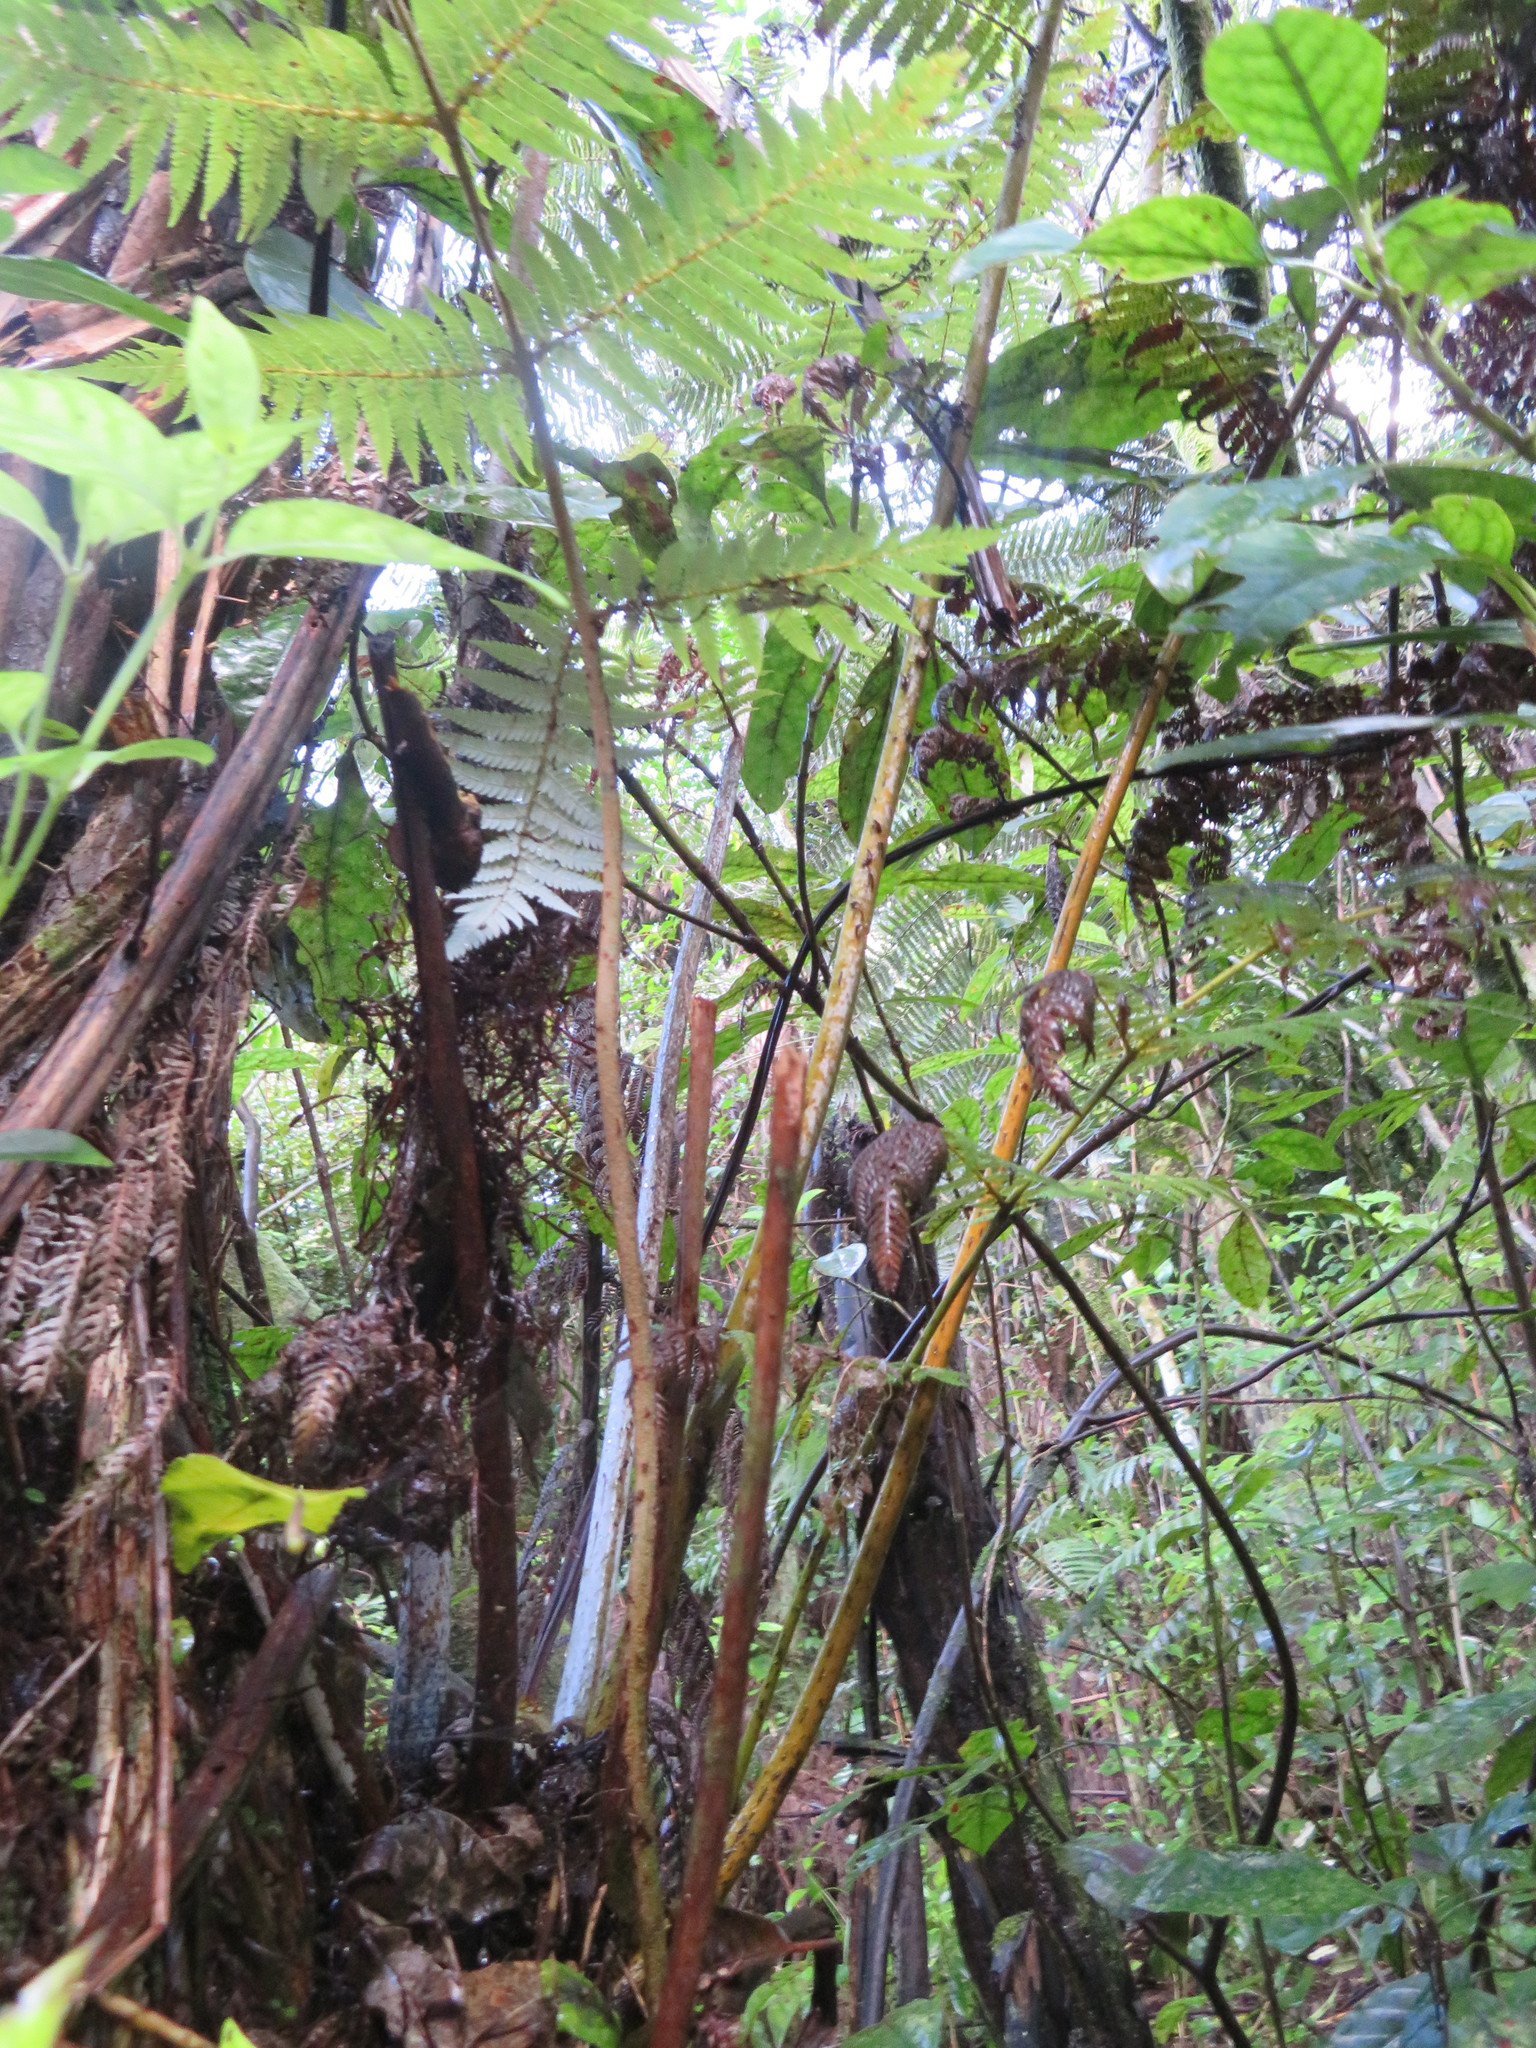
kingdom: Plantae
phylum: Tracheophyta
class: Polypodiopsida
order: Cyatheales
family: Cyatheaceae
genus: Alsophila
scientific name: Alsophila dealbata
